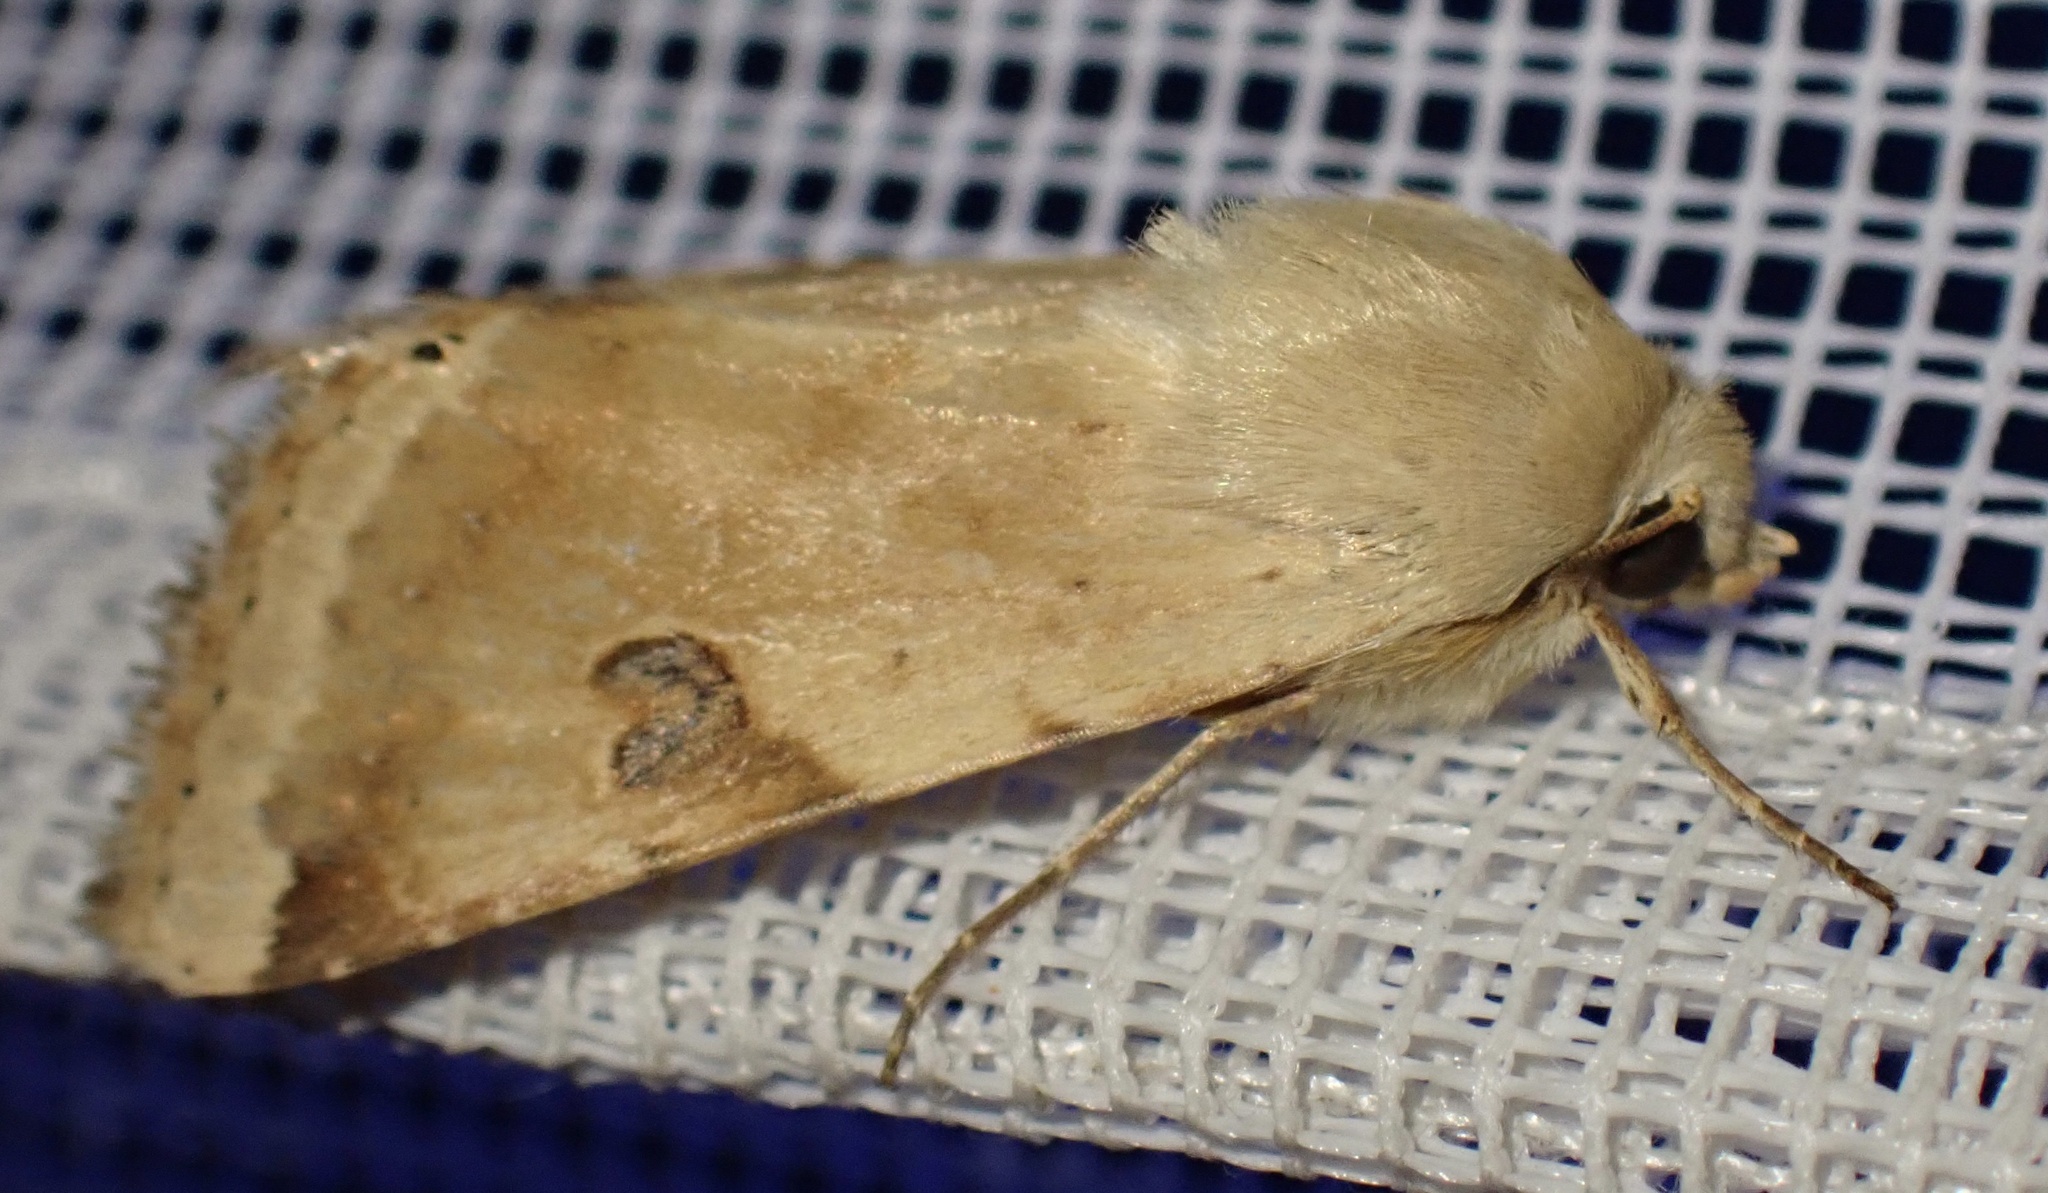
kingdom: Animalia
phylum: Arthropoda
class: Insecta
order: Lepidoptera
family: Noctuidae
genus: Heliothis
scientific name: Heliothis peltigera
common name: Bordered straw
